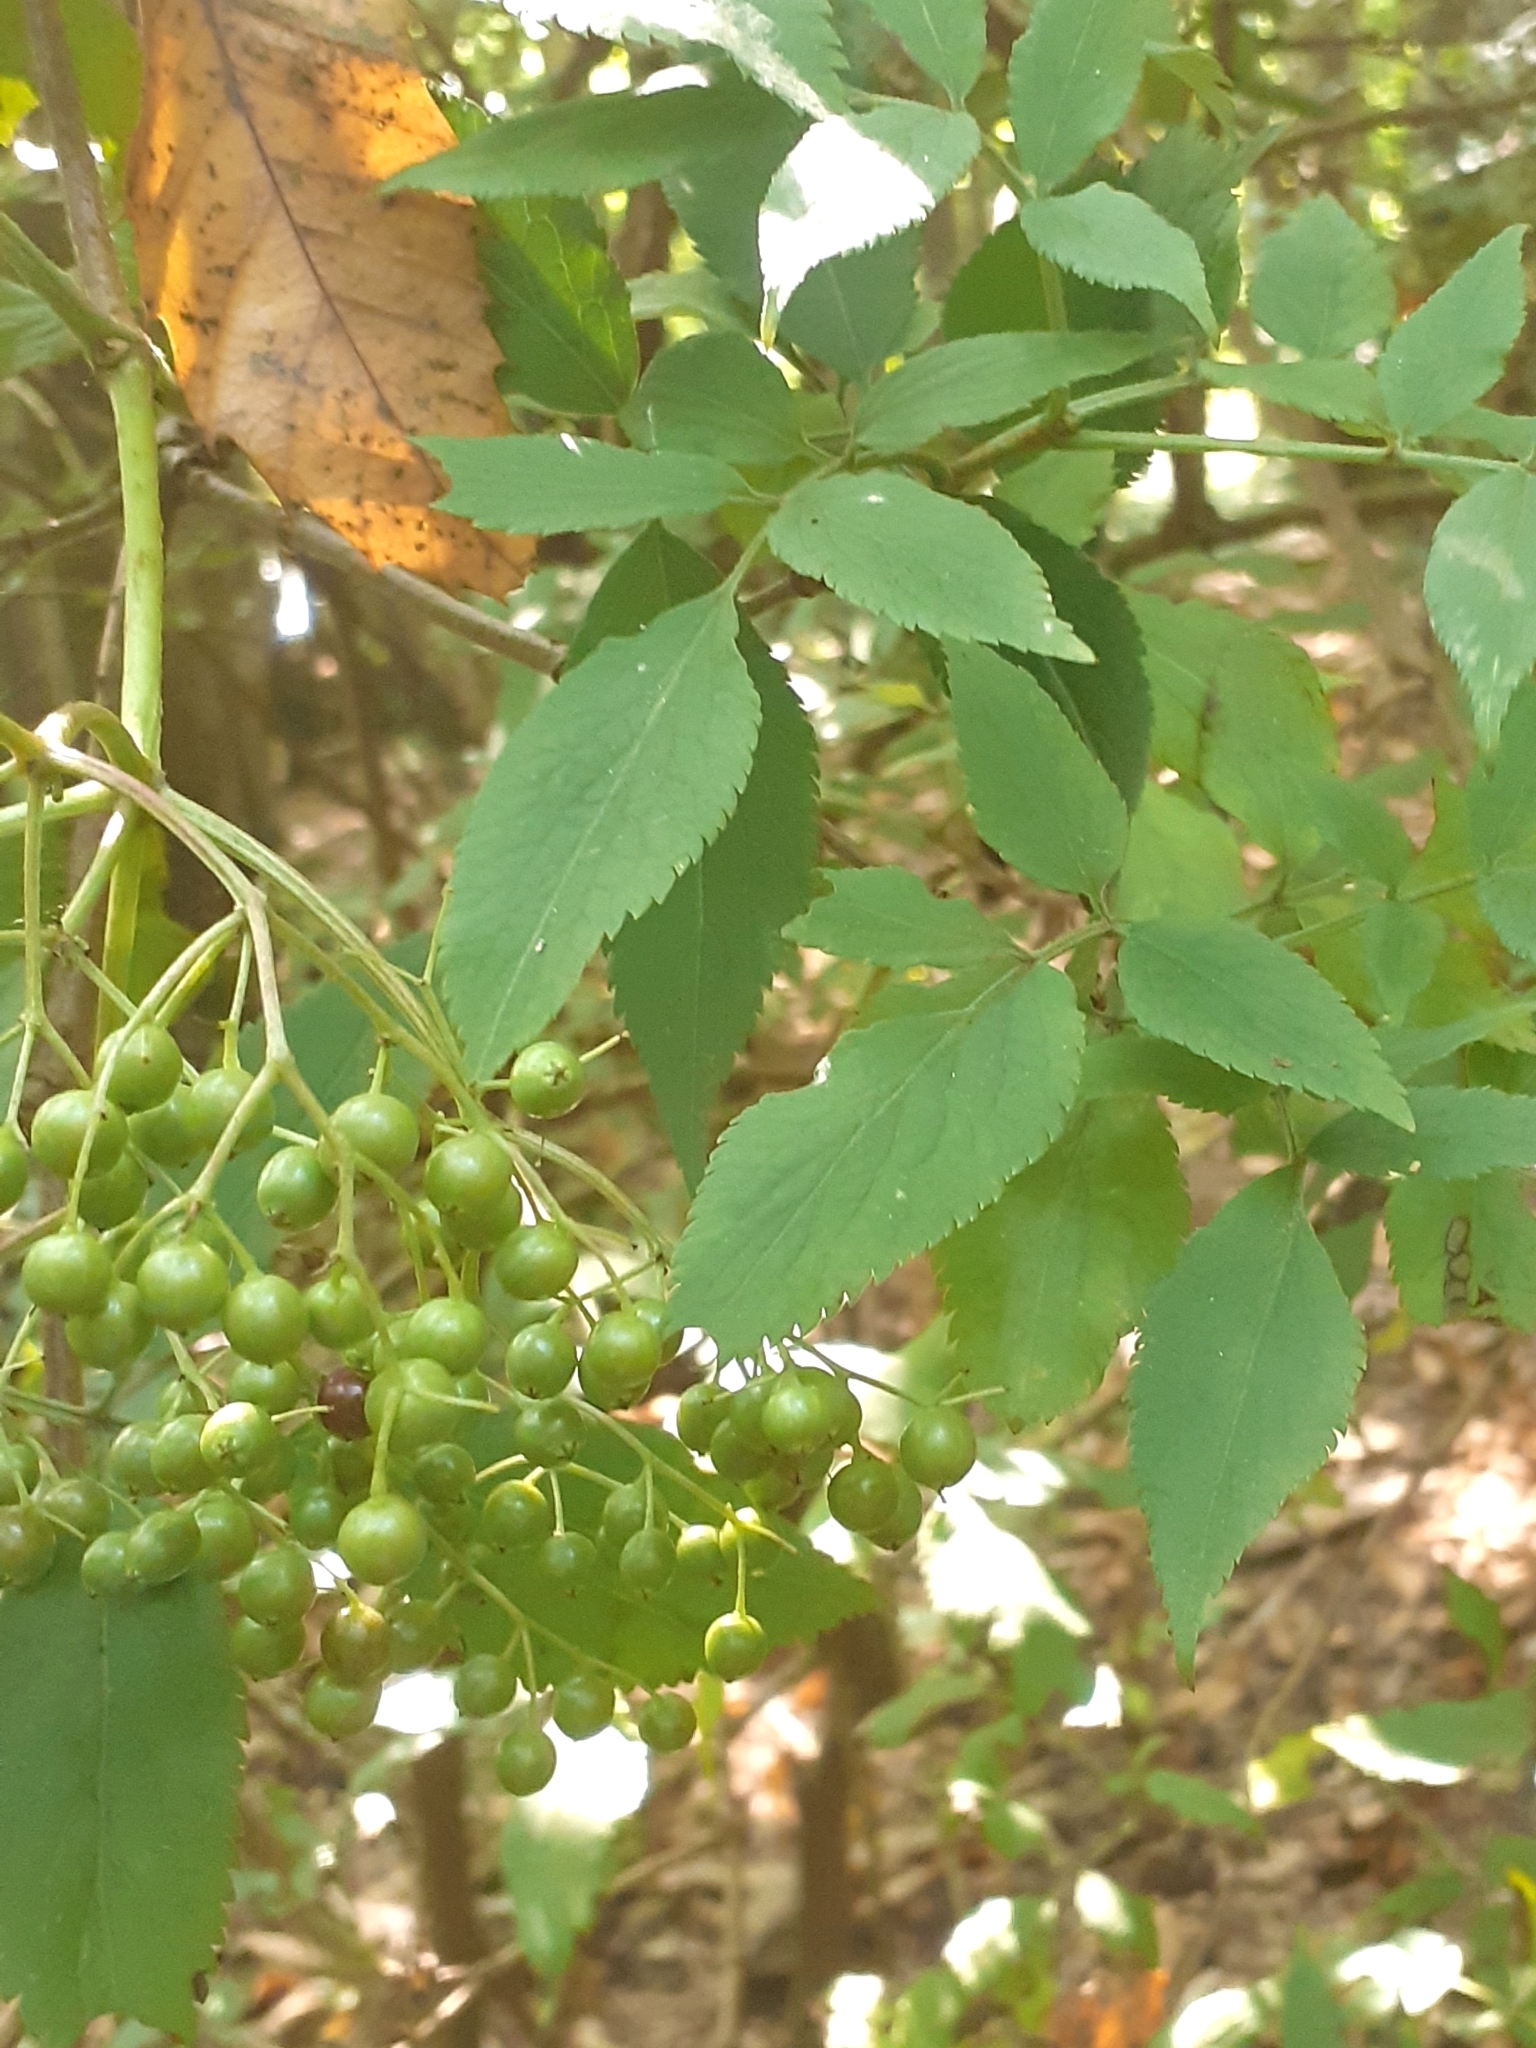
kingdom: Plantae
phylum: Tracheophyta
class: Magnoliopsida
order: Dipsacales
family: Viburnaceae
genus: Sambucus
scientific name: Sambucus nigra
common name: Elder
